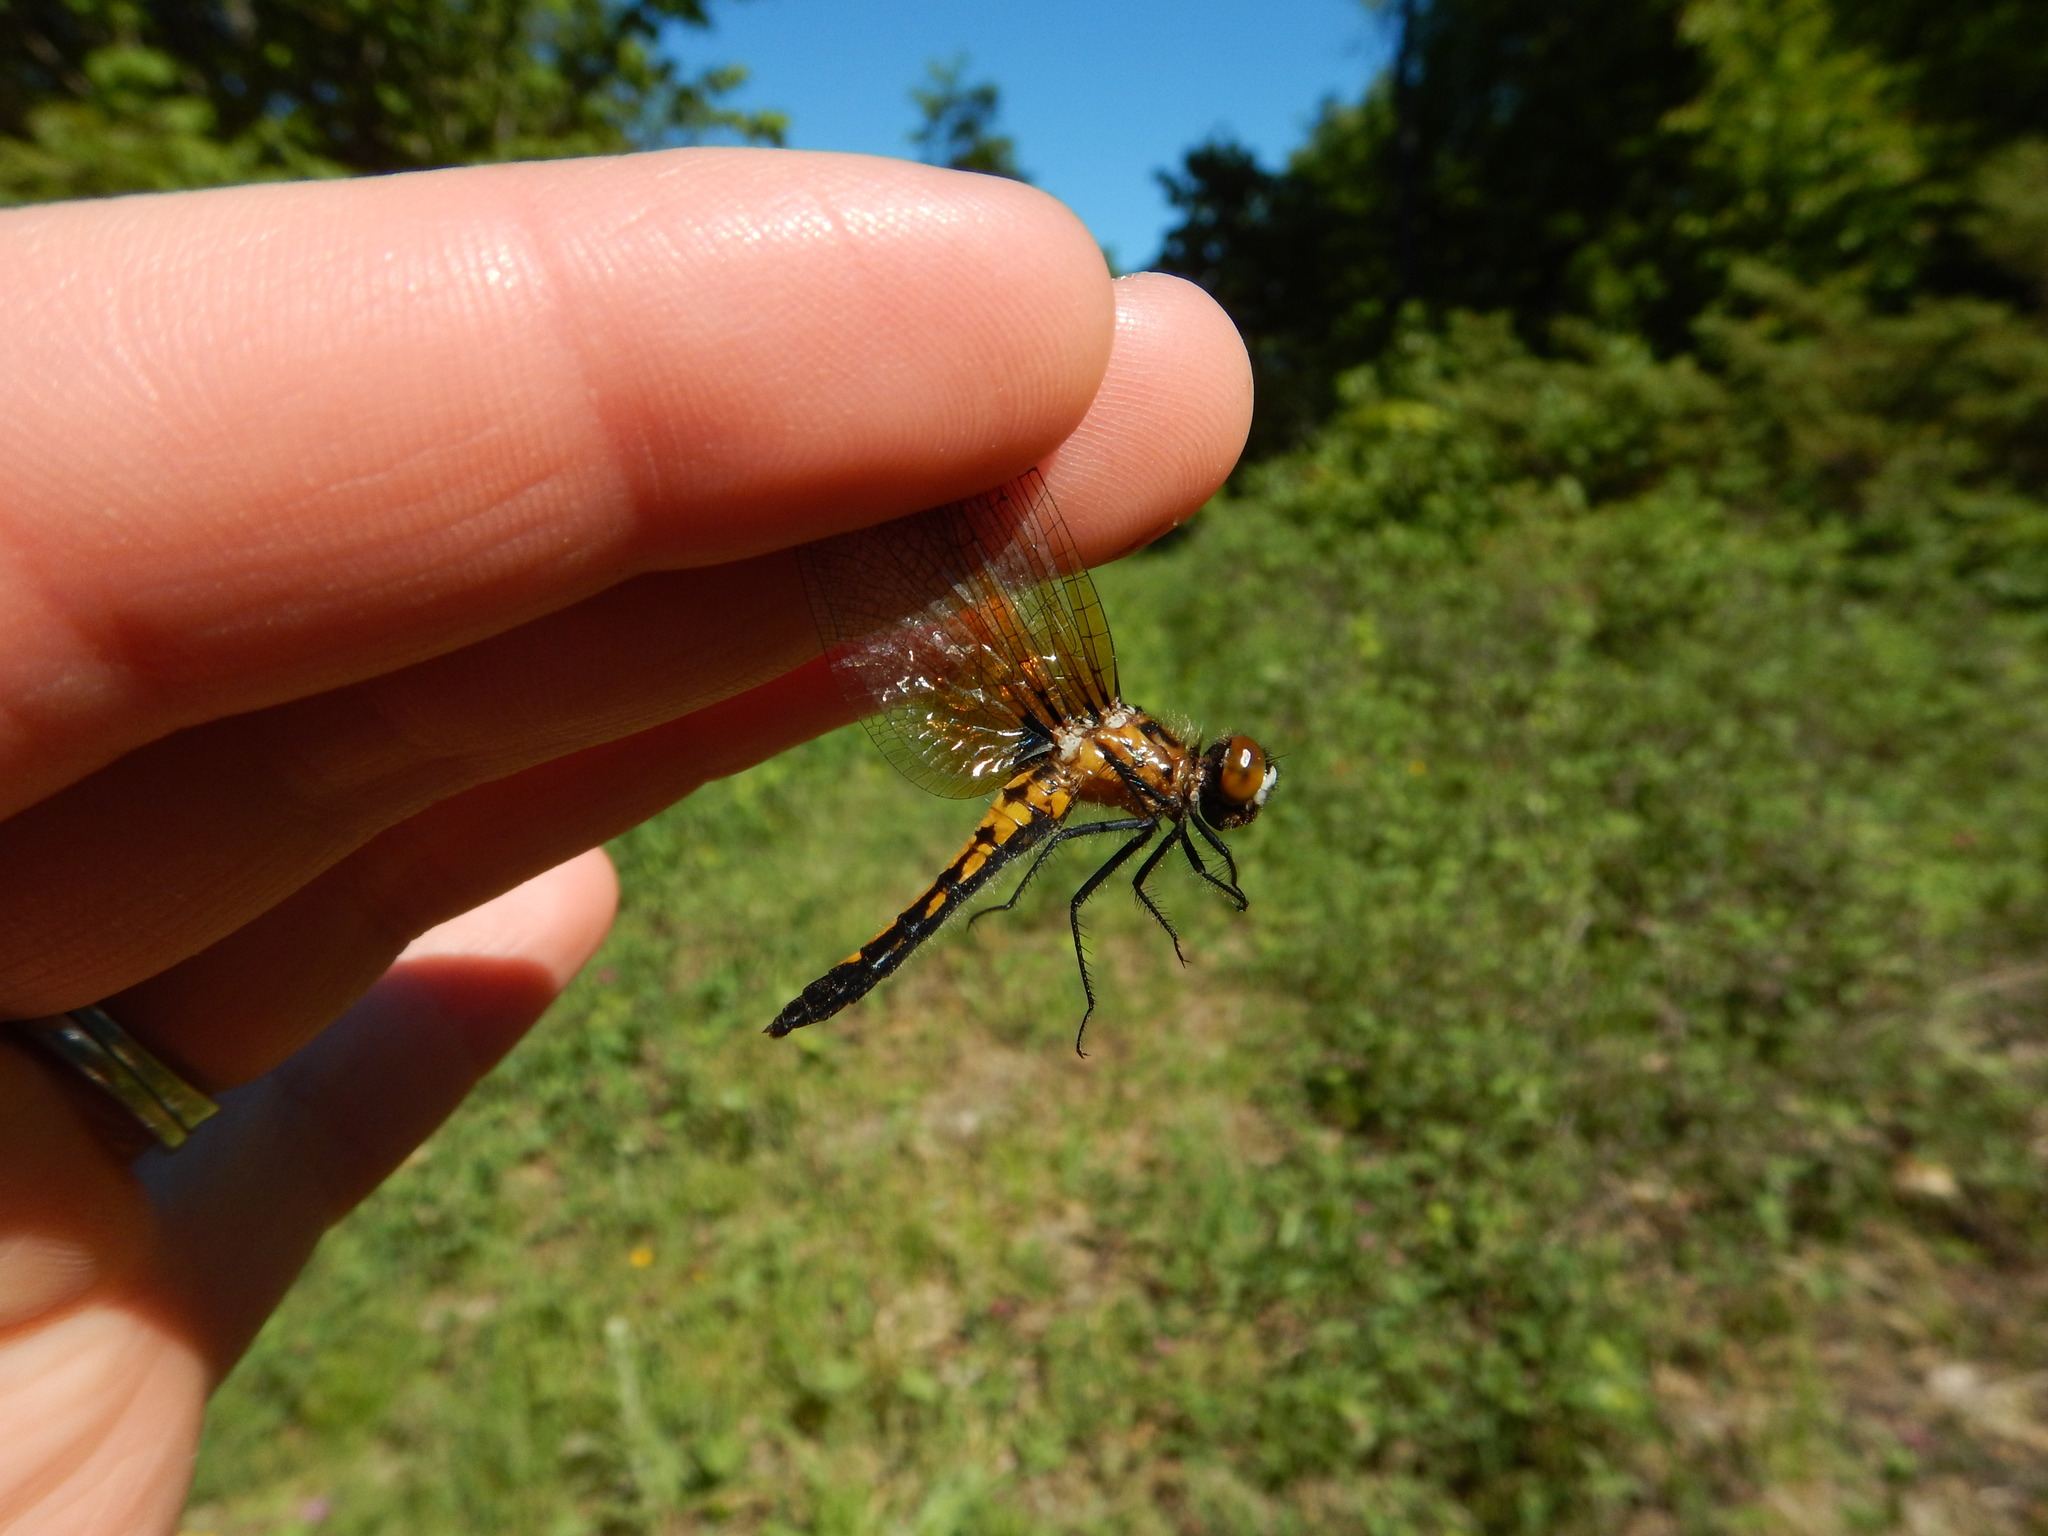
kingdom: Animalia
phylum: Arthropoda
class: Insecta
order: Odonata
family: Libellulidae
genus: Leucorrhinia
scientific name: Leucorrhinia intacta
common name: Dot-tailed whiteface
